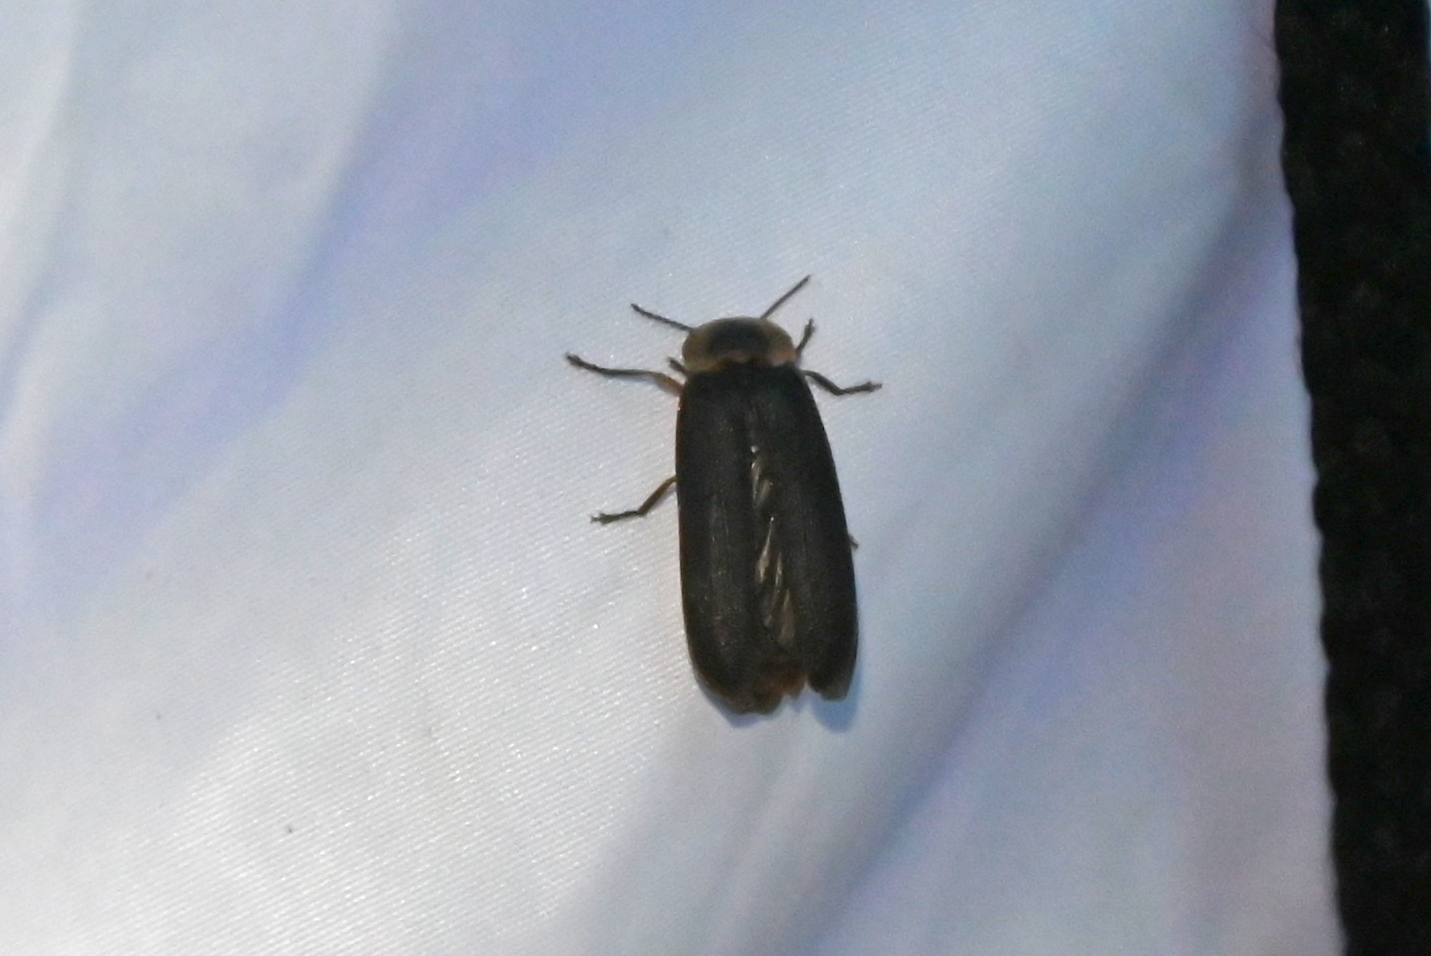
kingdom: Animalia
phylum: Arthropoda
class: Insecta
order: Coleoptera
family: Lampyridae
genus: Lampyris
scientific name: Lampyris noctiluca
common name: Glow-worm
